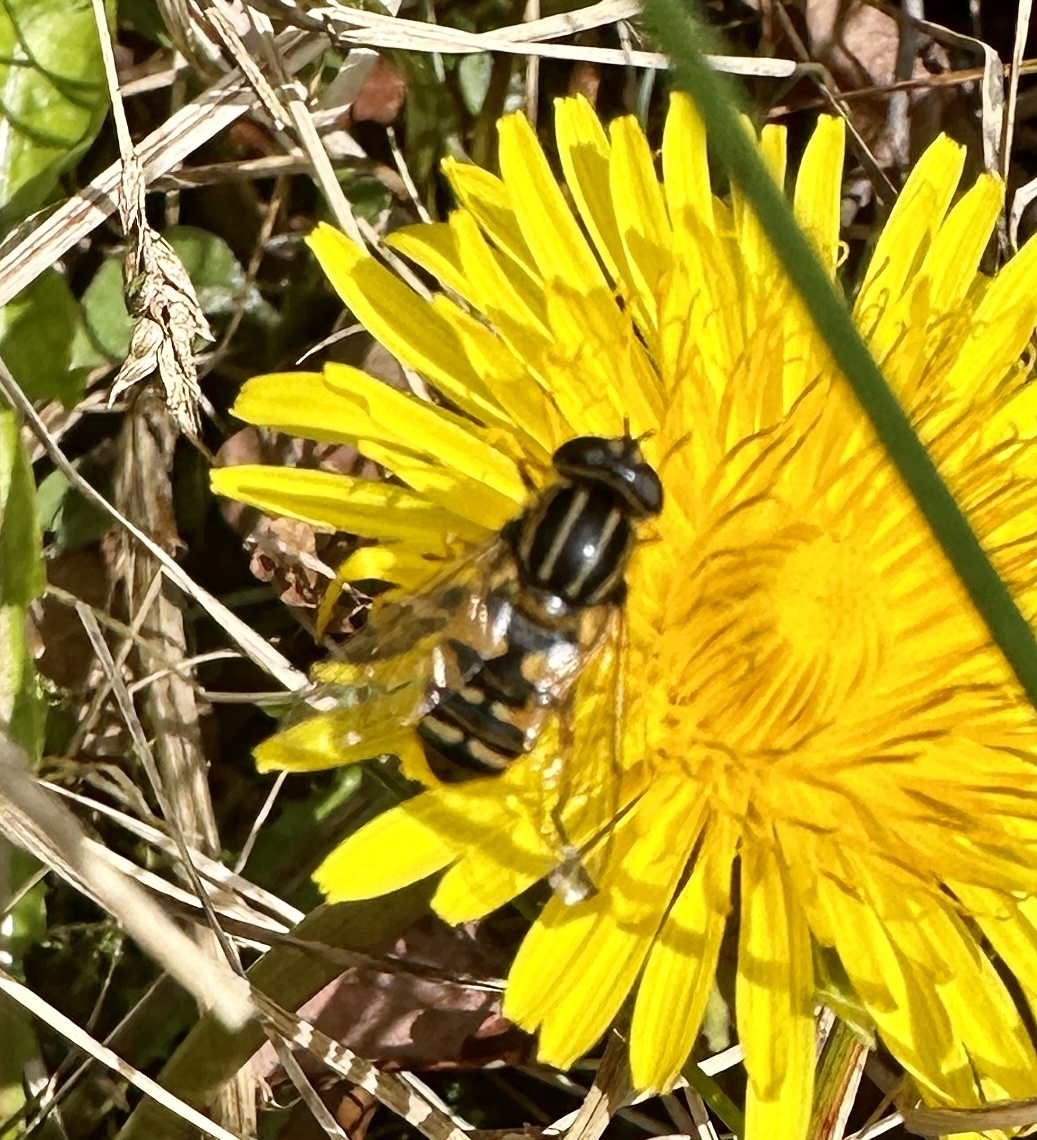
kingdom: Animalia
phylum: Arthropoda
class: Insecta
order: Diptera
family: Syrphidae
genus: Helophilus
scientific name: Helophilus pendulus
